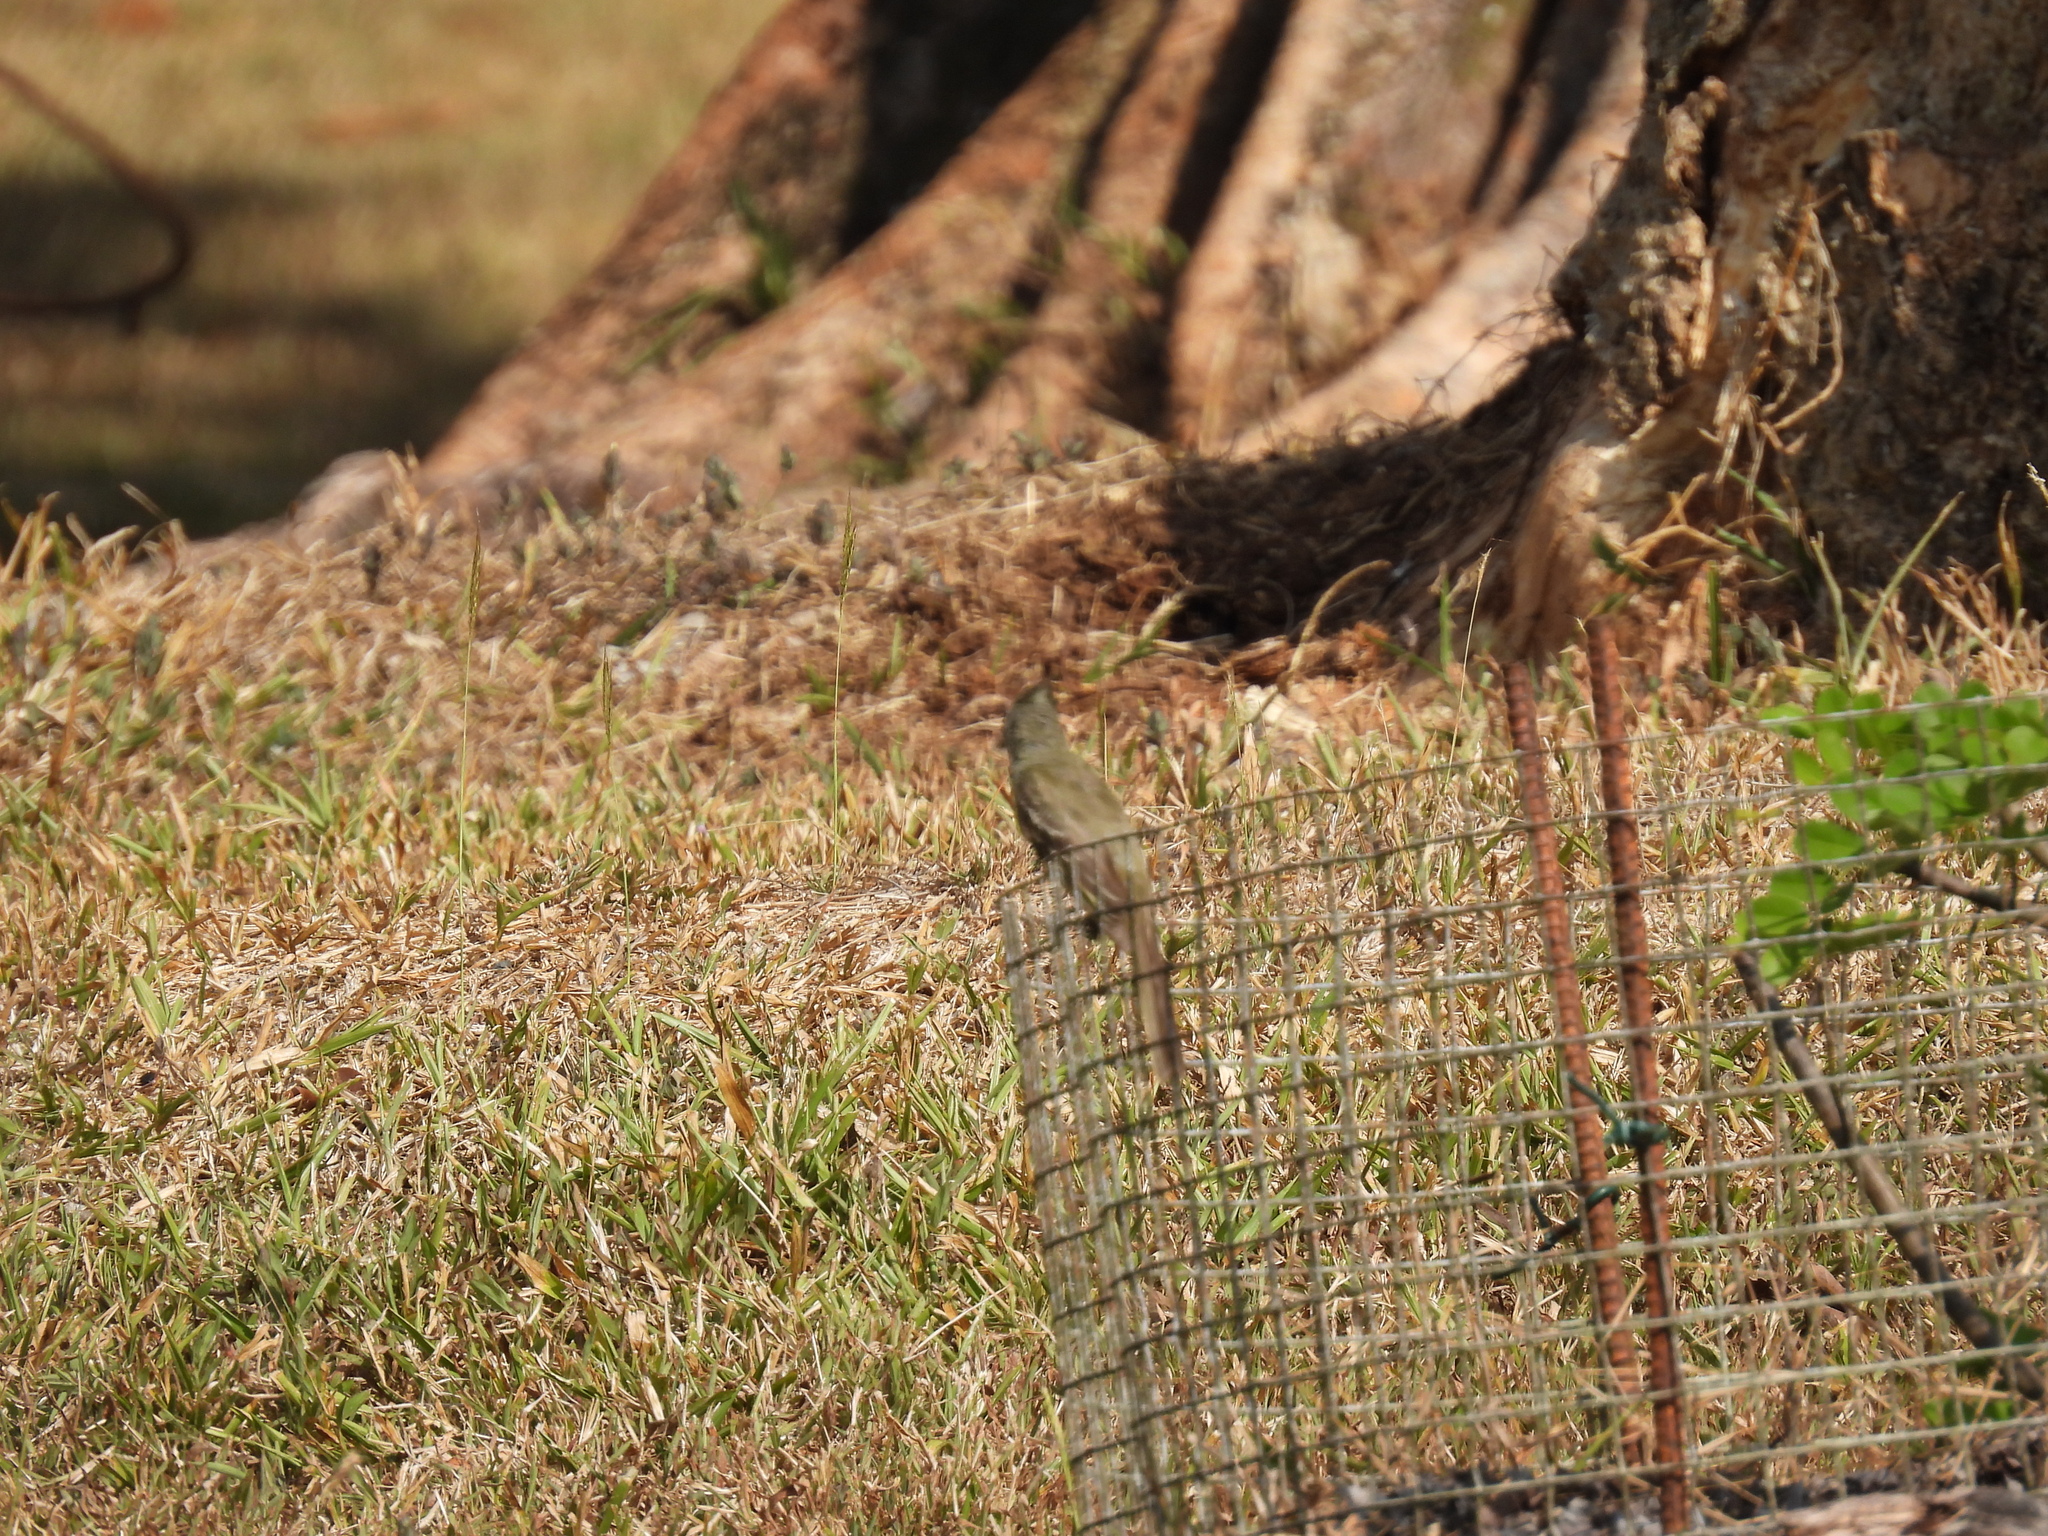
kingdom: Animalia
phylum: Chordata
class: Aves
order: Passeriformes
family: Tyrannidae
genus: Elaenia
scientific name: Elaenia flavogaster
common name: Yellow-bellied elaenia
